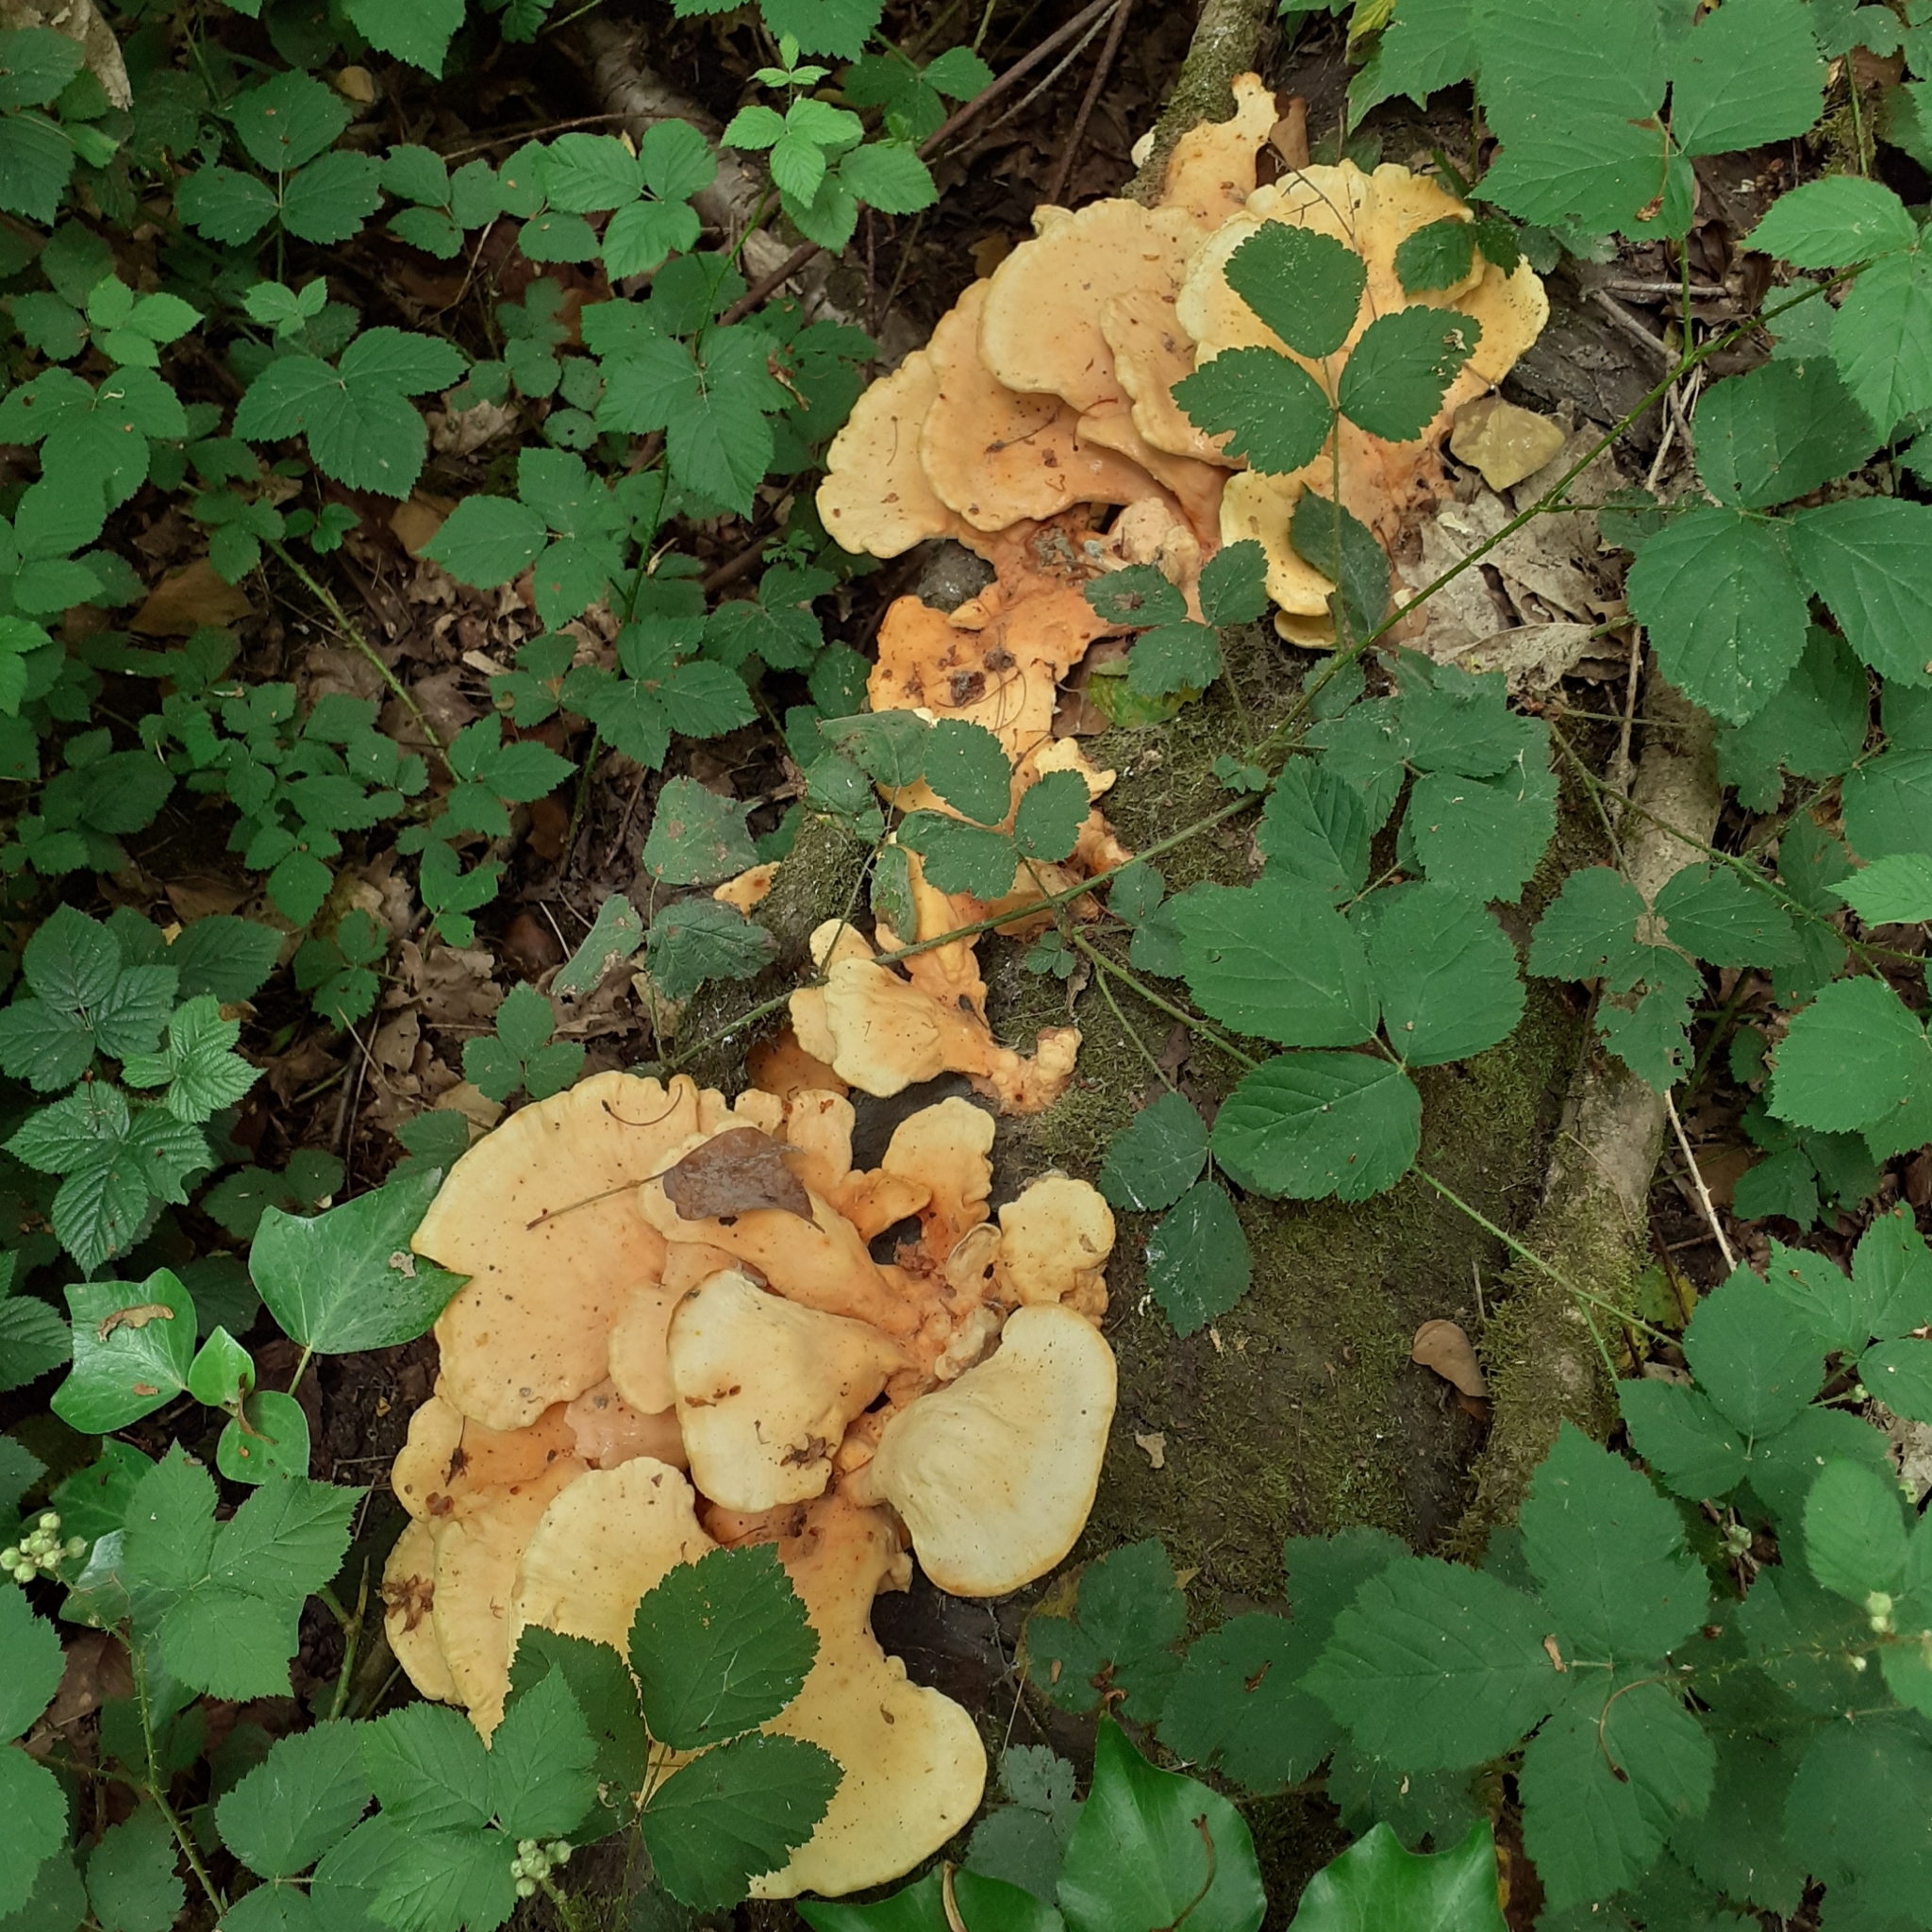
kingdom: Fungi
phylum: Basidiomycota
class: Agaricomycetes
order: Polyporales
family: Laetiporaceae
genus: Laetiporus
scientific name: Laetiporus sulphureus
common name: Chicken of the woods
